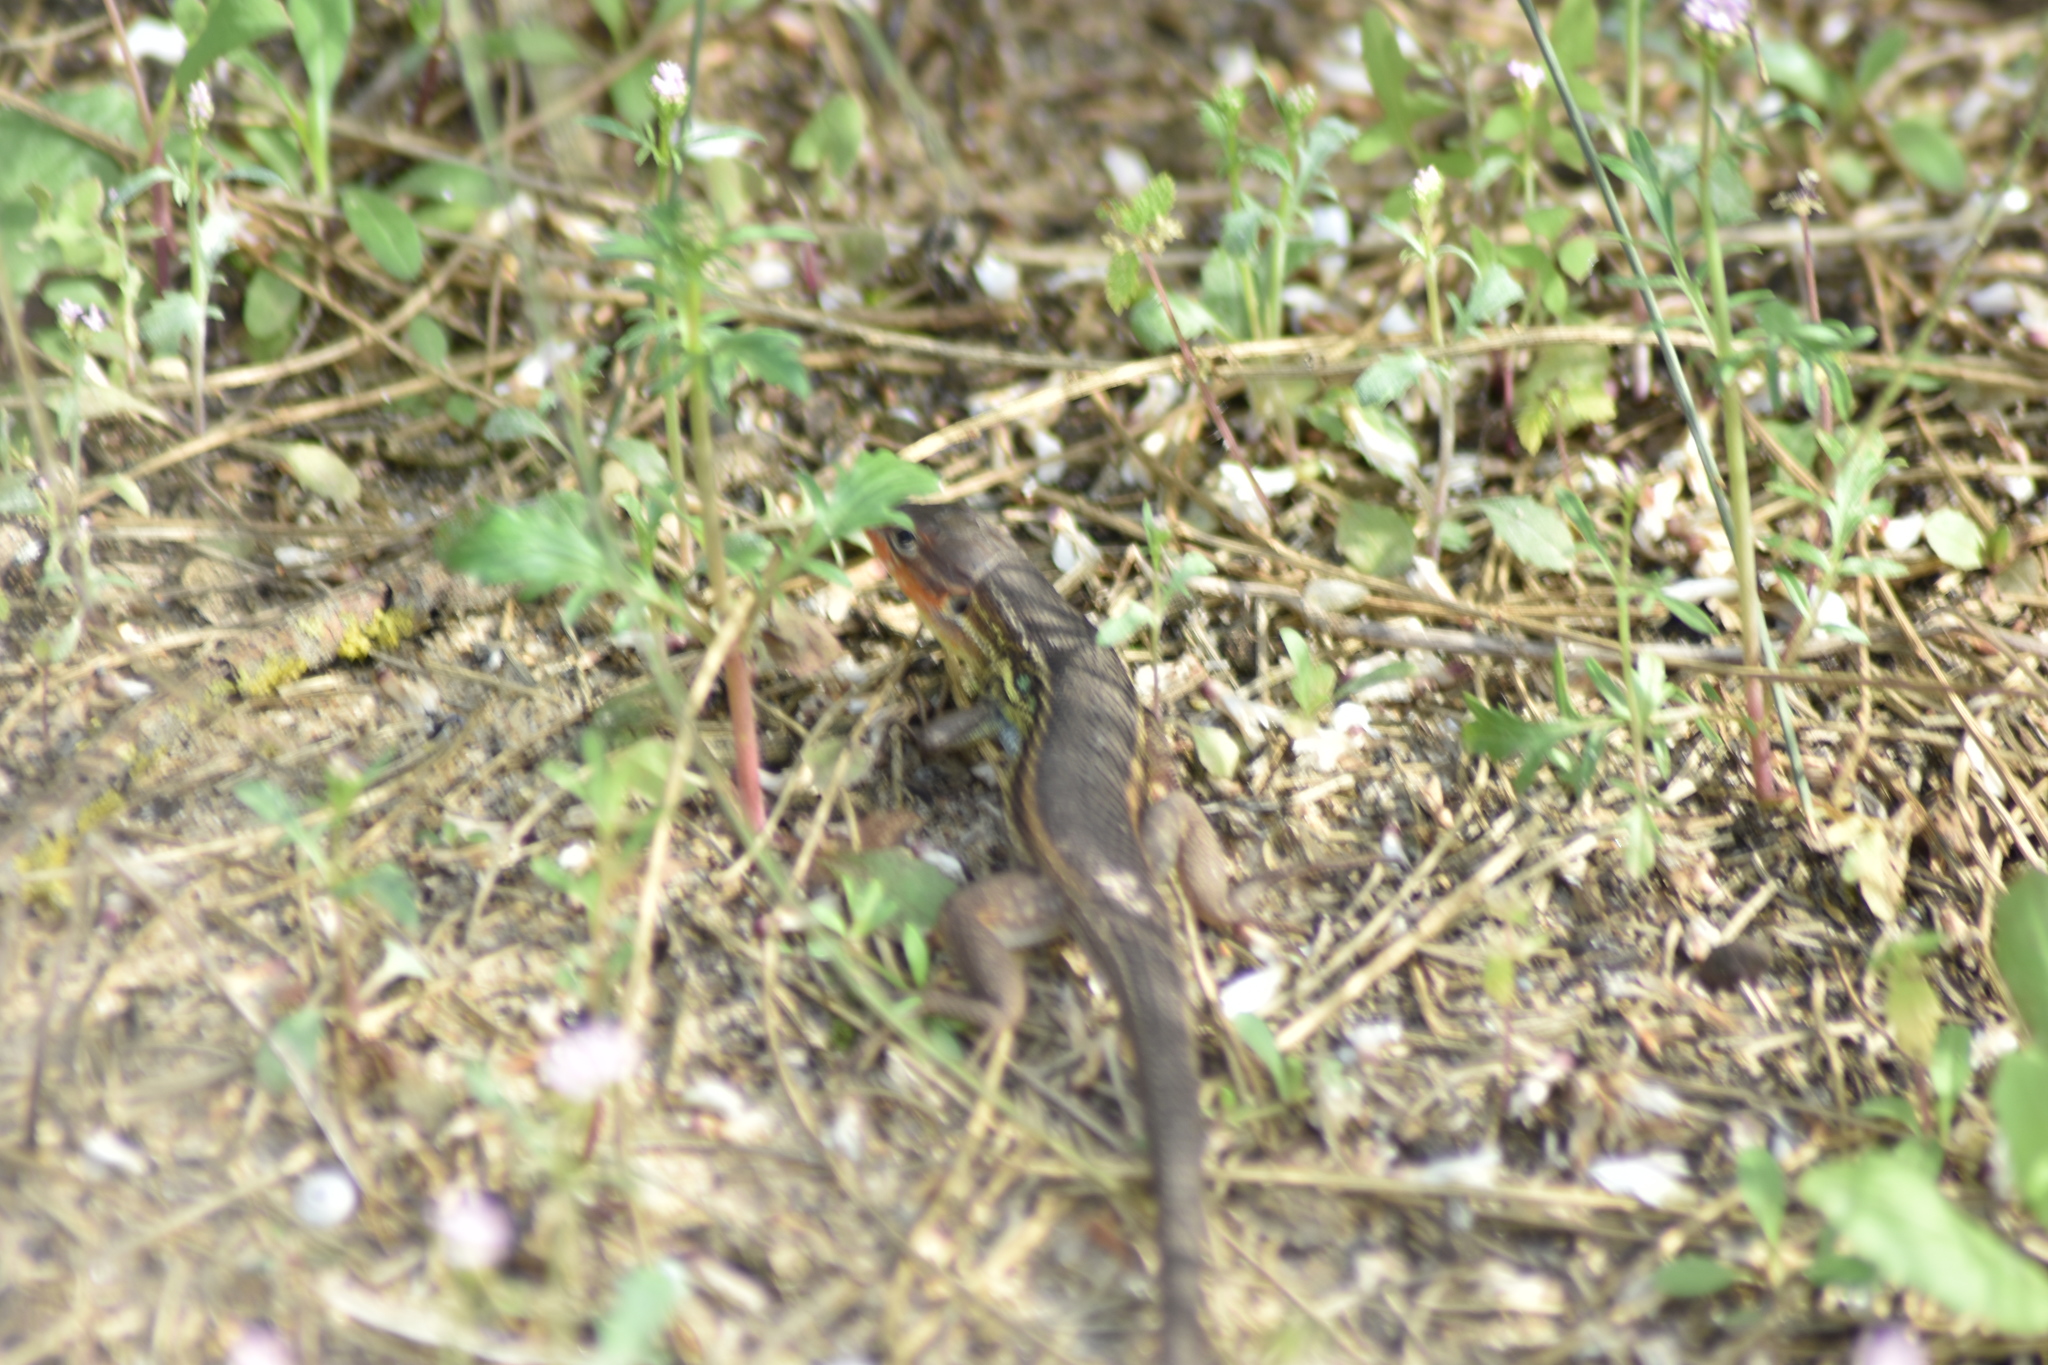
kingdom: Animalia
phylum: Chordata
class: Squamata
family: Lacertidae
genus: Psammodromus
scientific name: Psammodromus algirus
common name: Algerian psammodromus
